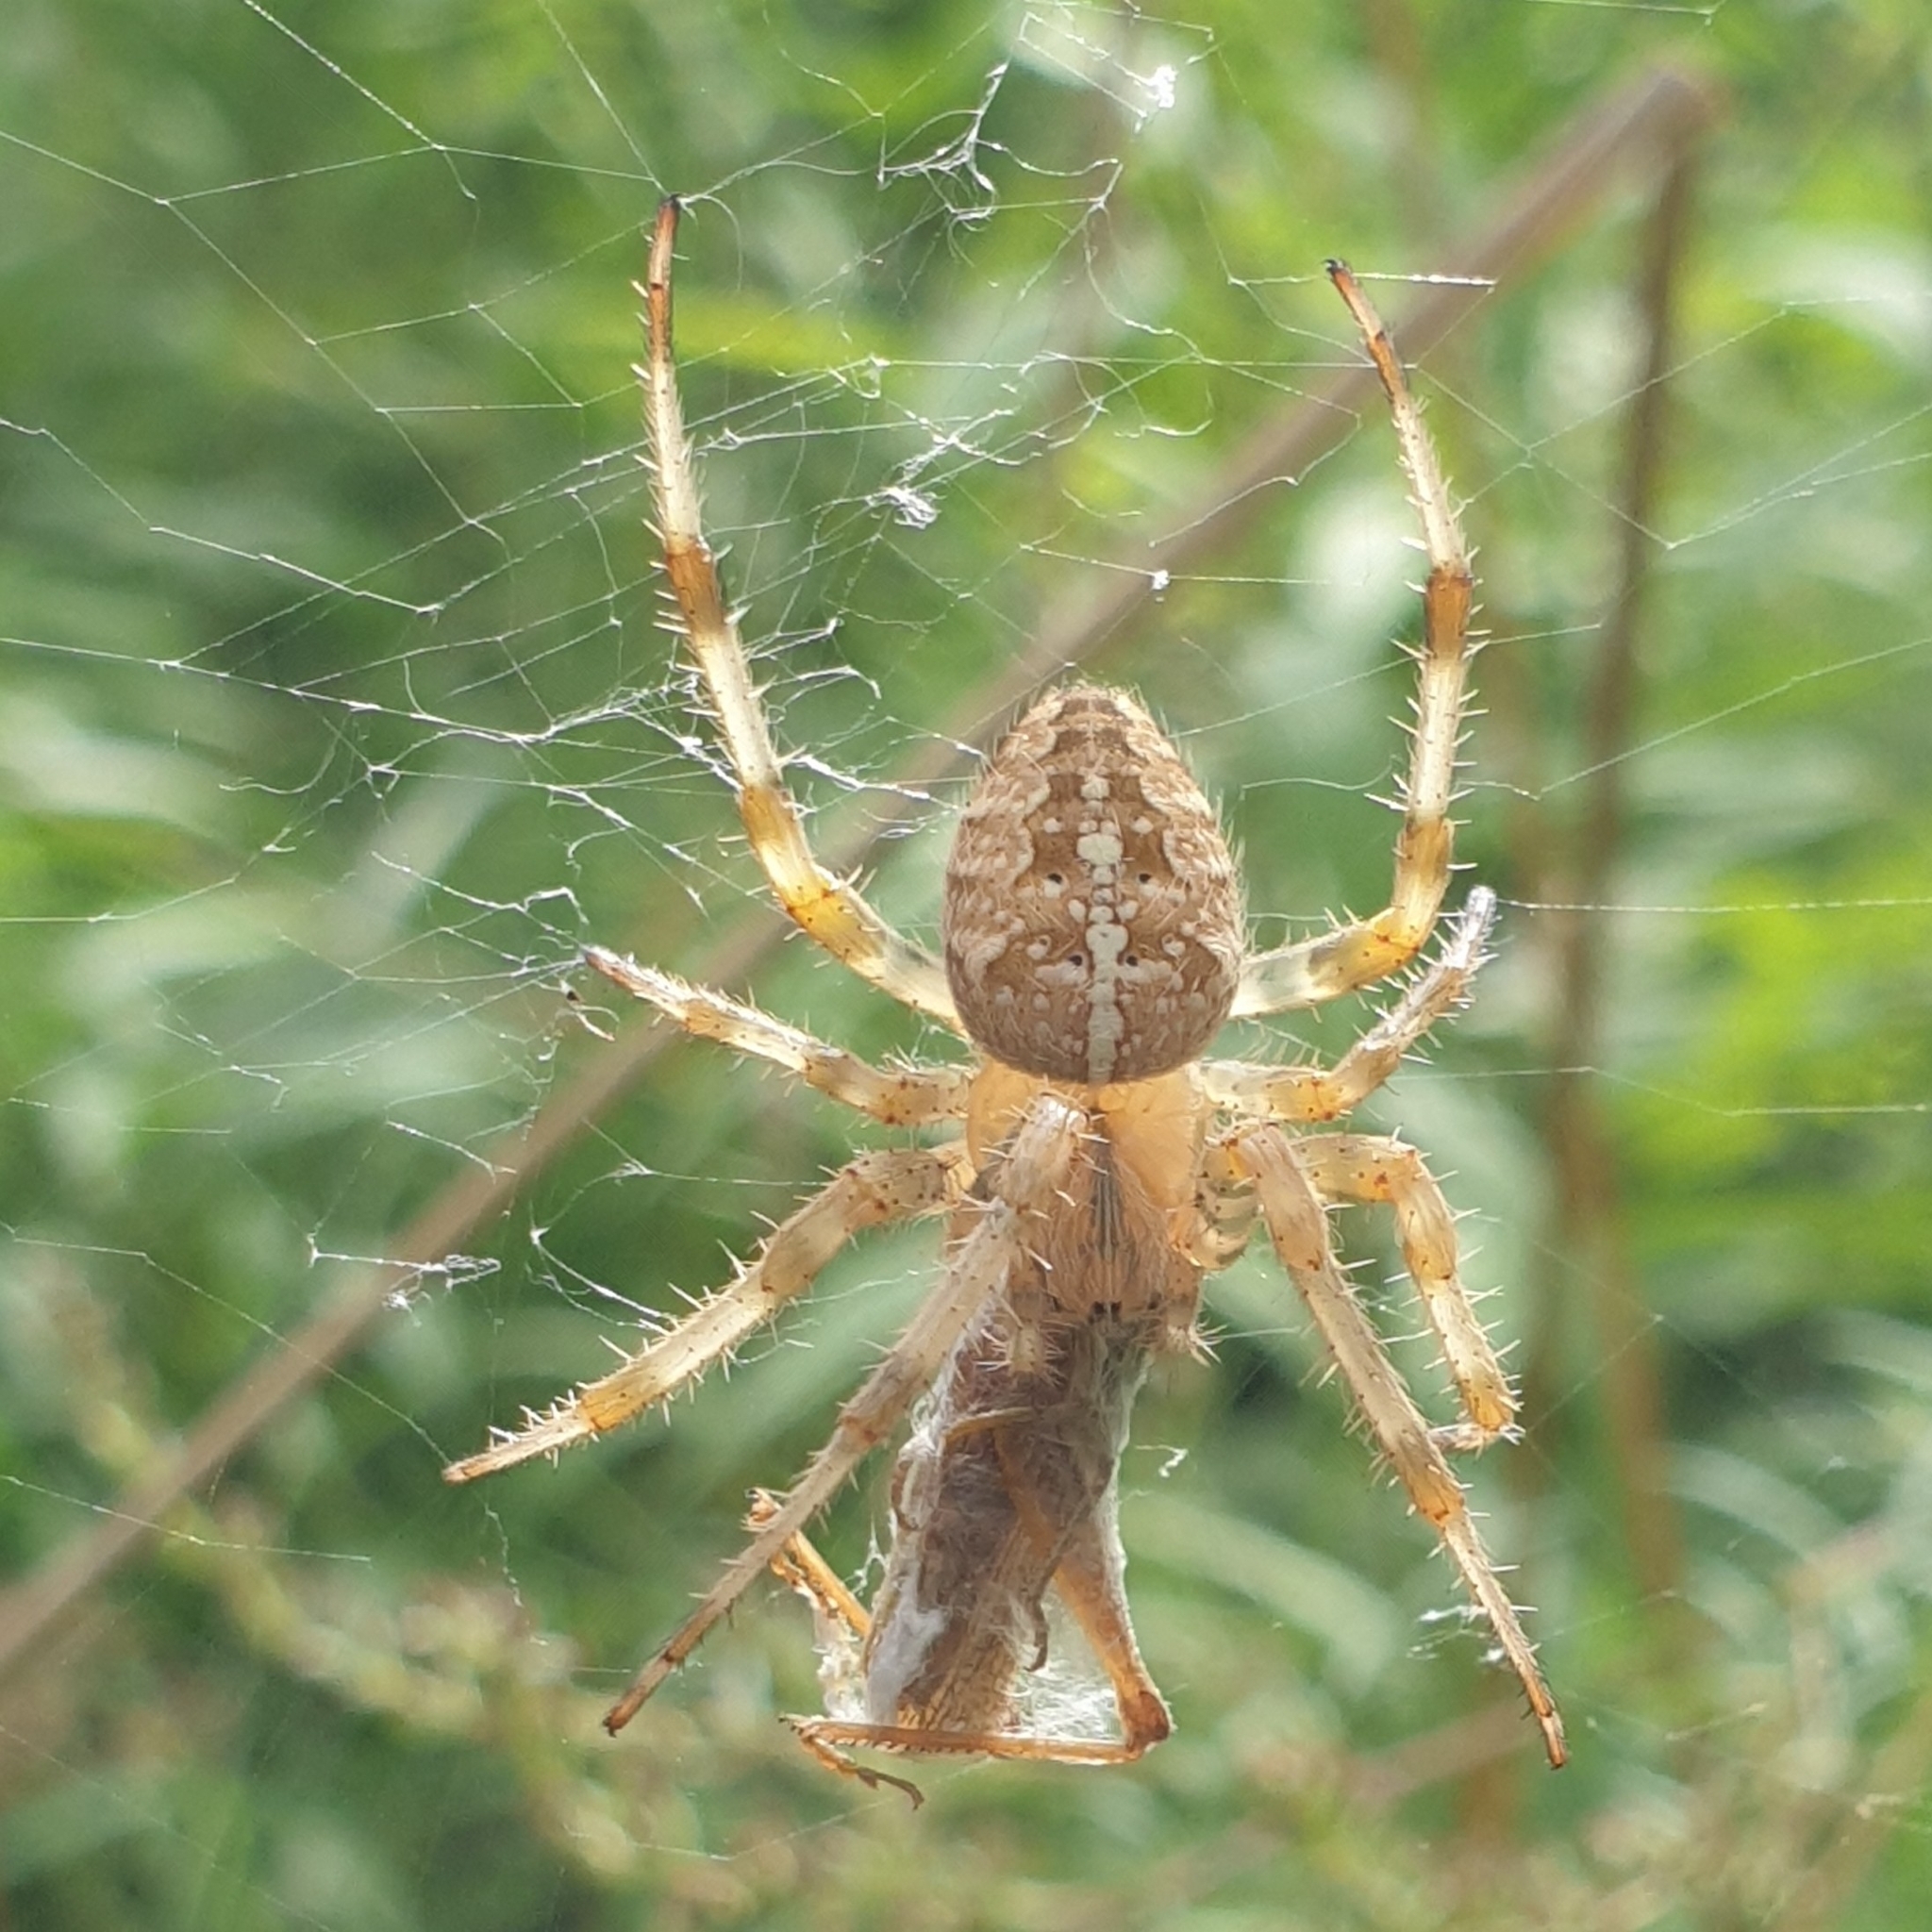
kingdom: Animalia
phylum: Arthropoda
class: Arachnida
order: Araneae
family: Araneidae
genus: Araneus
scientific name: Araneus diadematus
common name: Cross orbweaver
